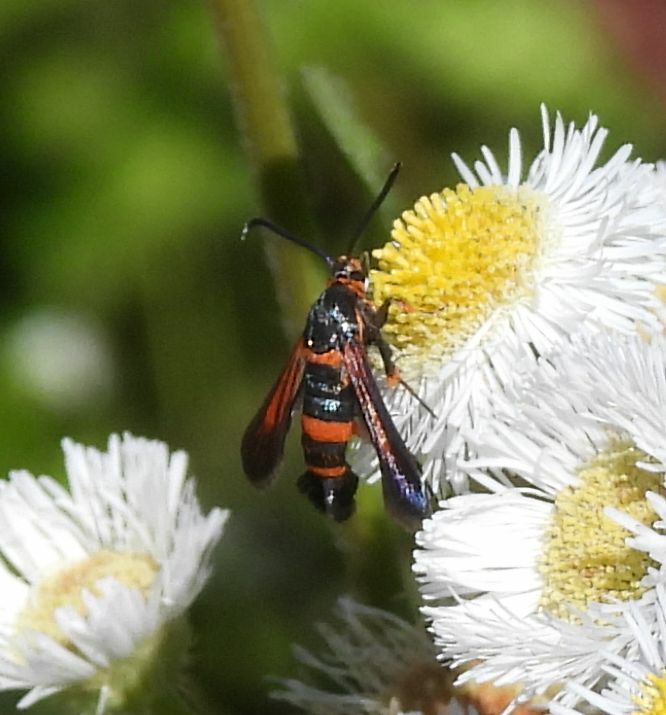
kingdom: Animalia
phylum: Arthropoda
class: Insecta
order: Lepidoptera
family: Sesiidae
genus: Synanthedon
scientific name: Synanthedon sapygaeformis
